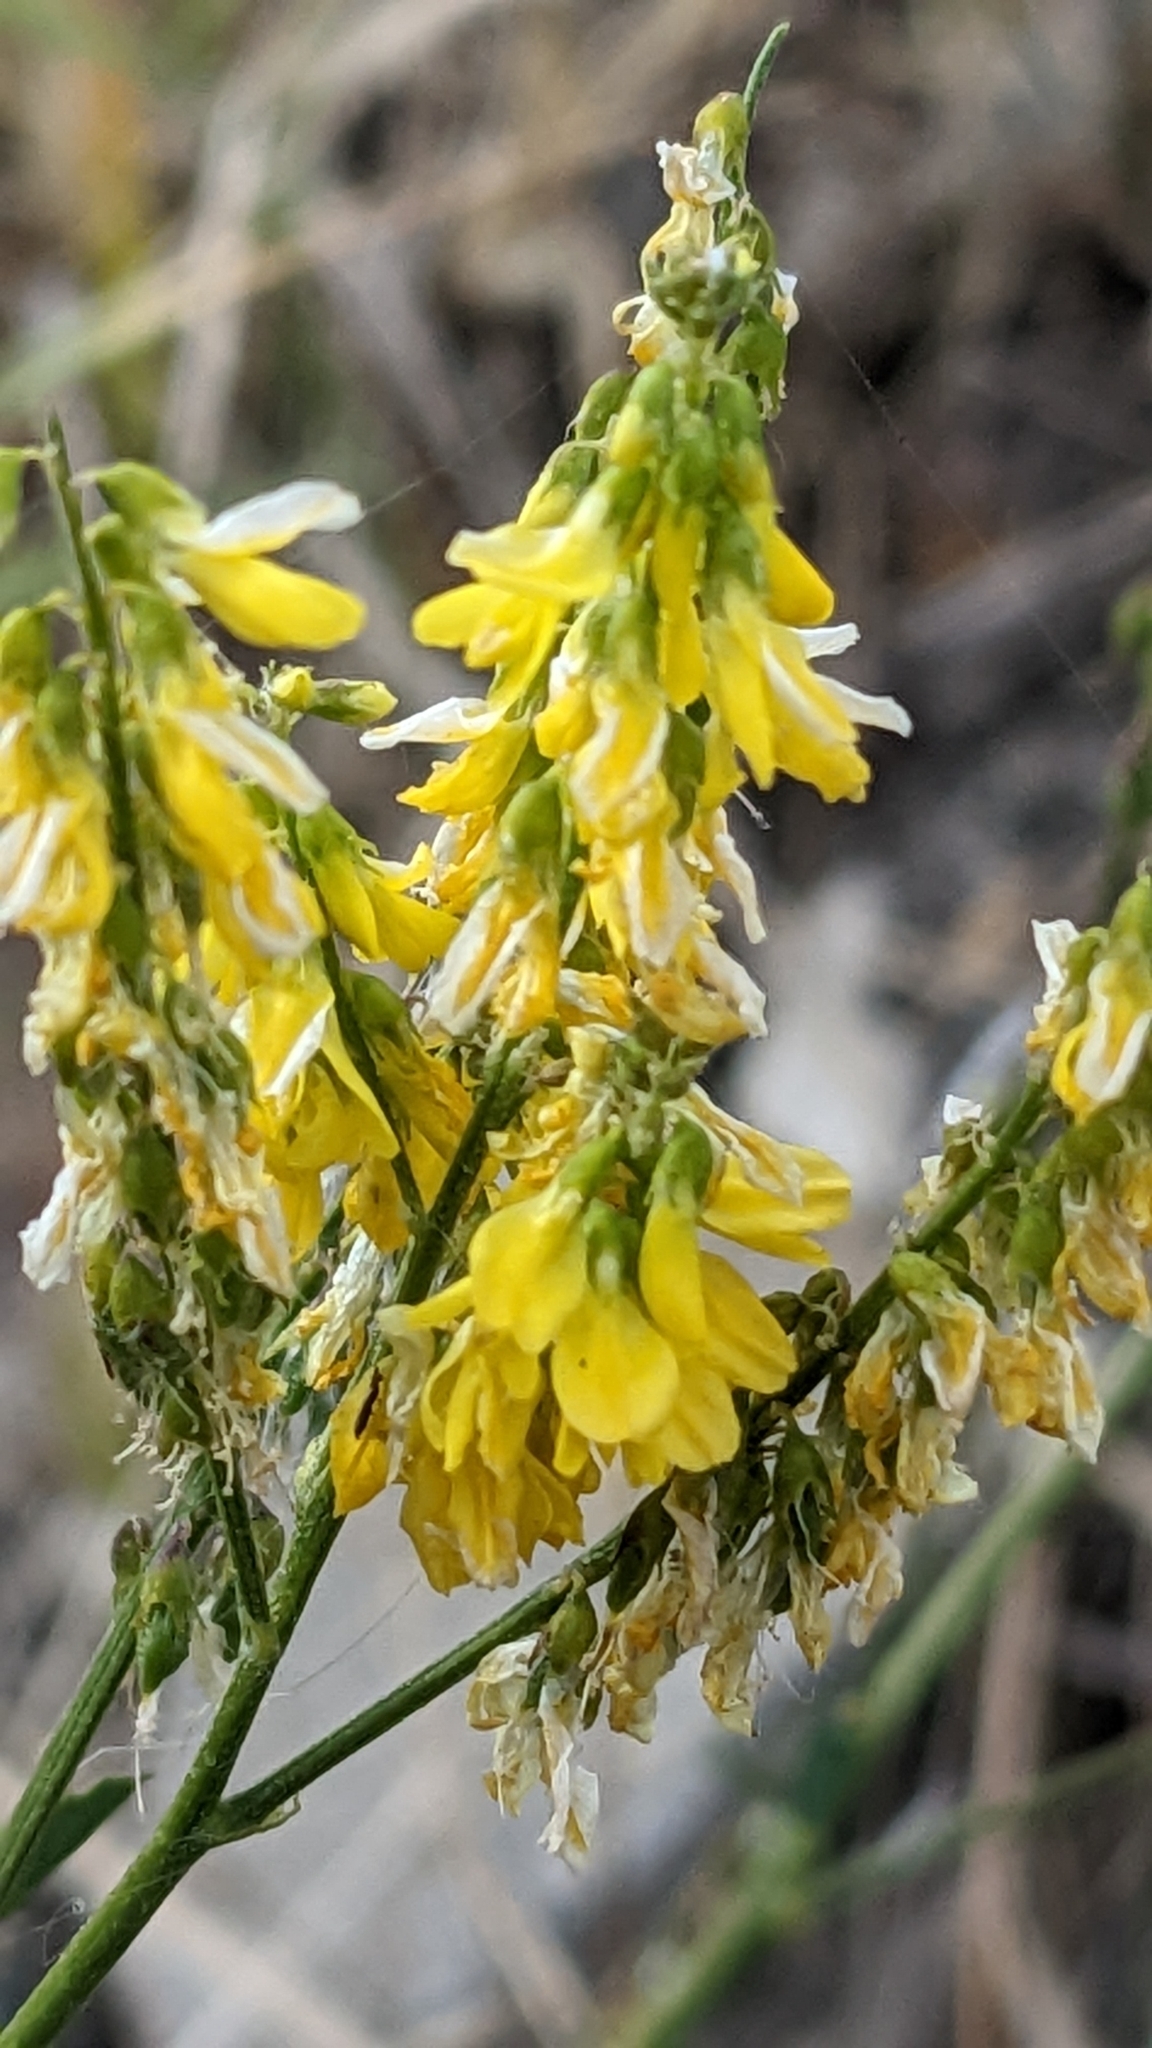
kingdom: Plantae
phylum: Tracheophyta
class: Magnoliopsida
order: Fabales
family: Fabaceae
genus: Melilotus
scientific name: Melilotus officinalis
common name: Sweetclover
